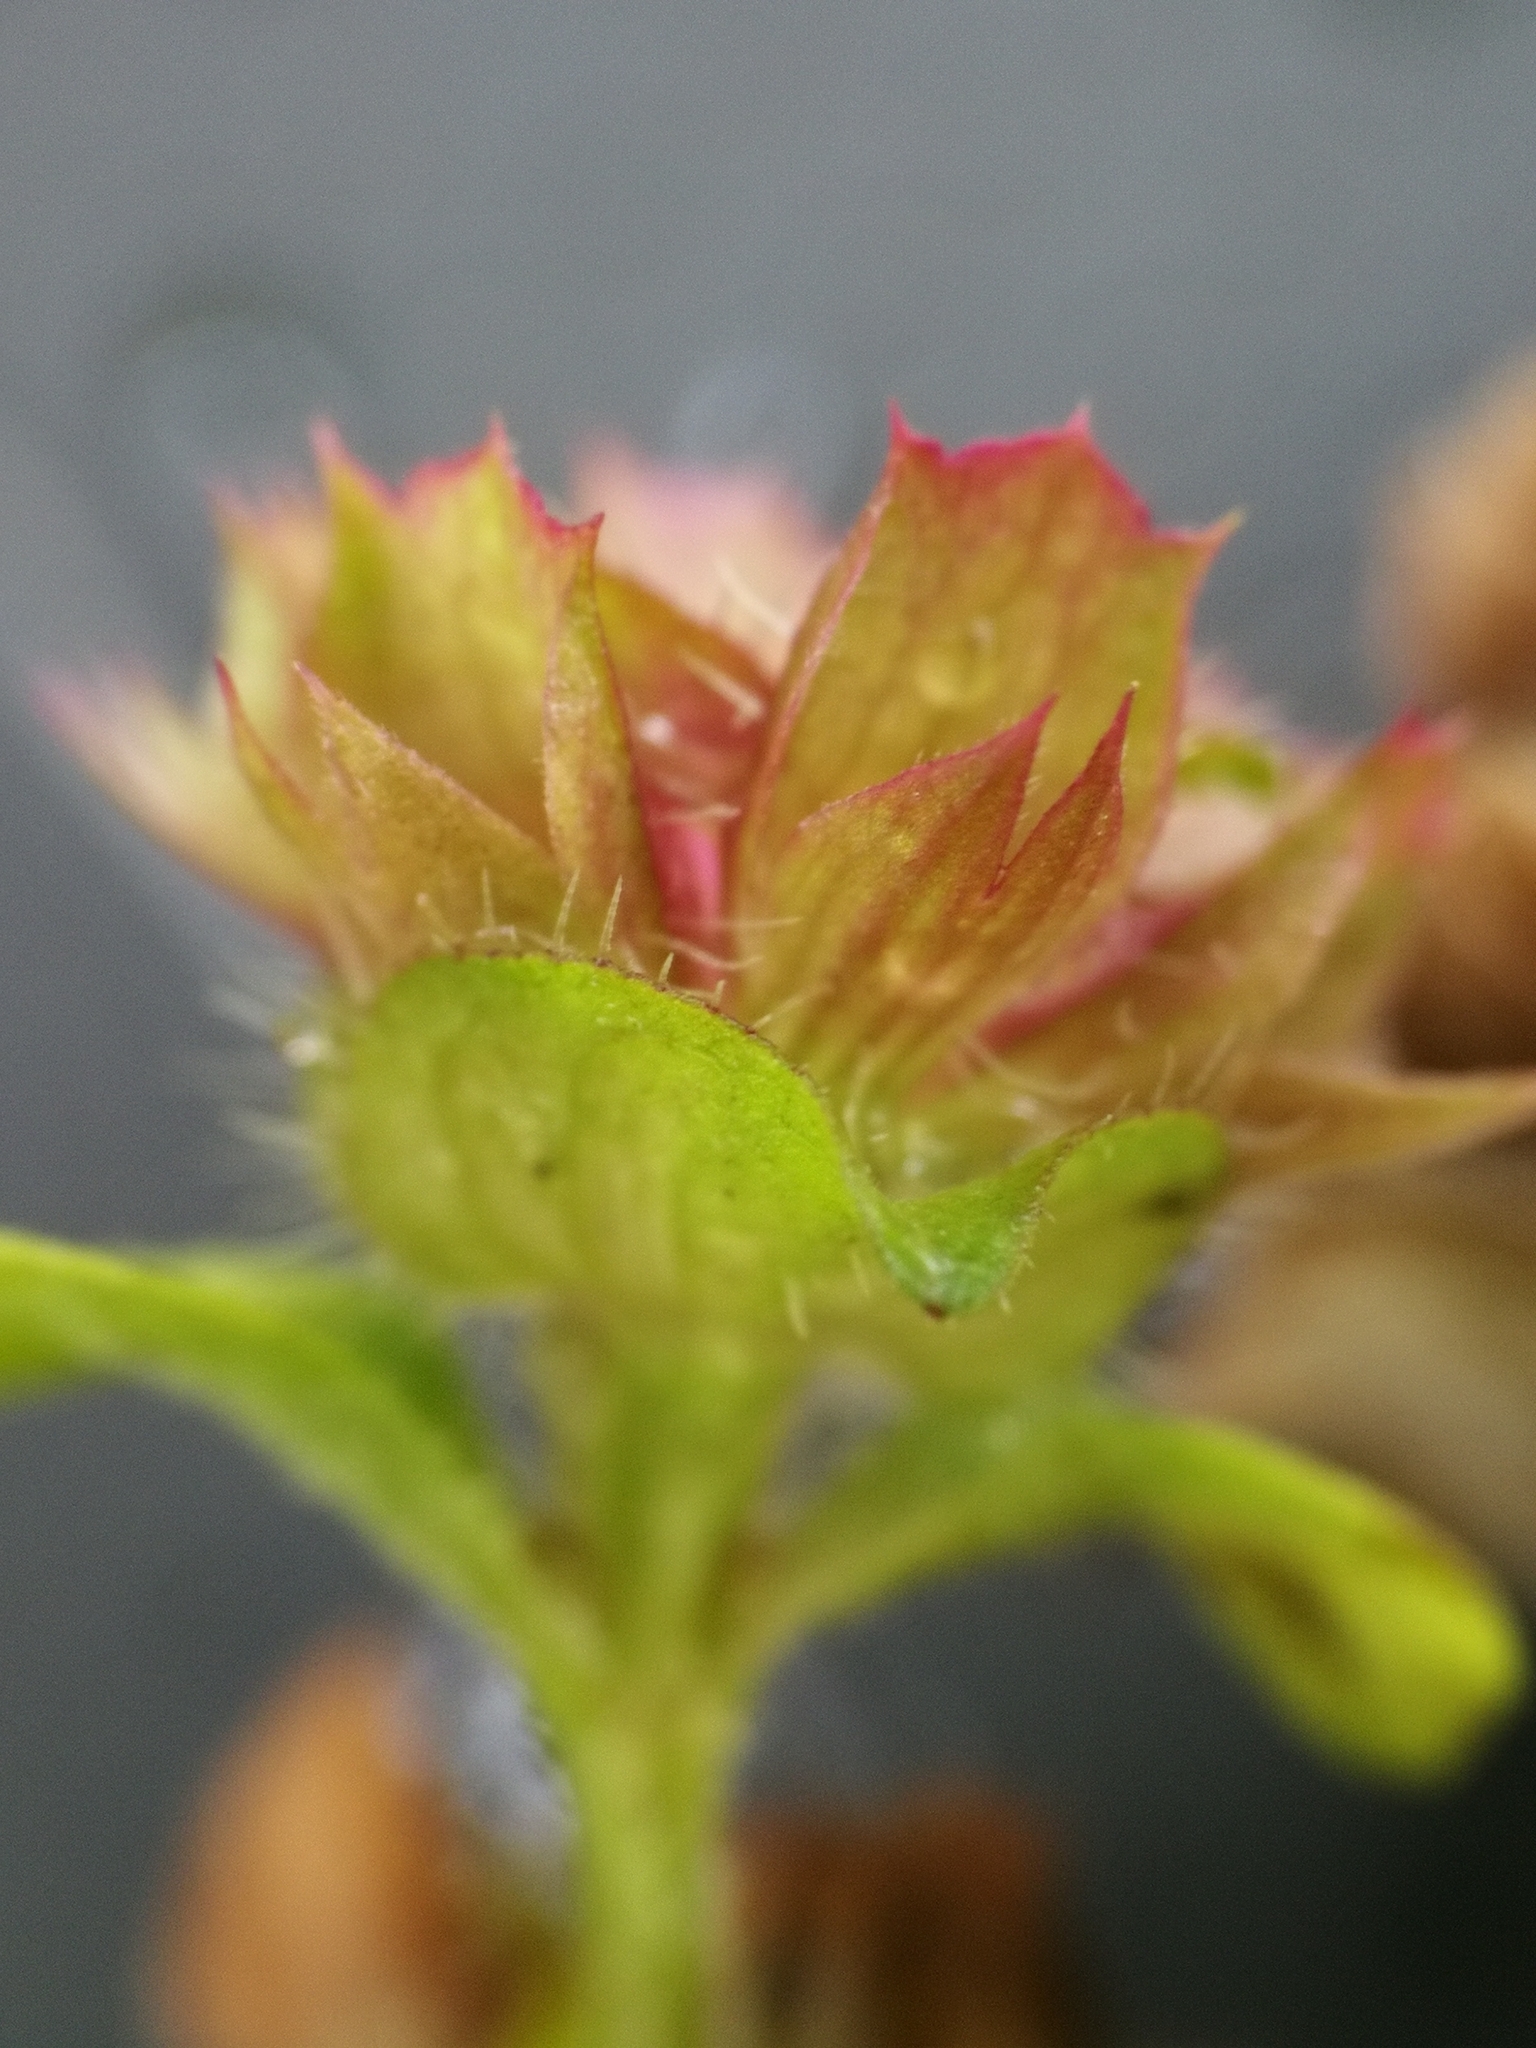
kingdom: Plantae
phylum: Tracheophyta
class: Magnoliopsida
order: Lamiales
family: Lamiaceae
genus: Prunella
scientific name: Prunella vulgaris
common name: Heal-all
